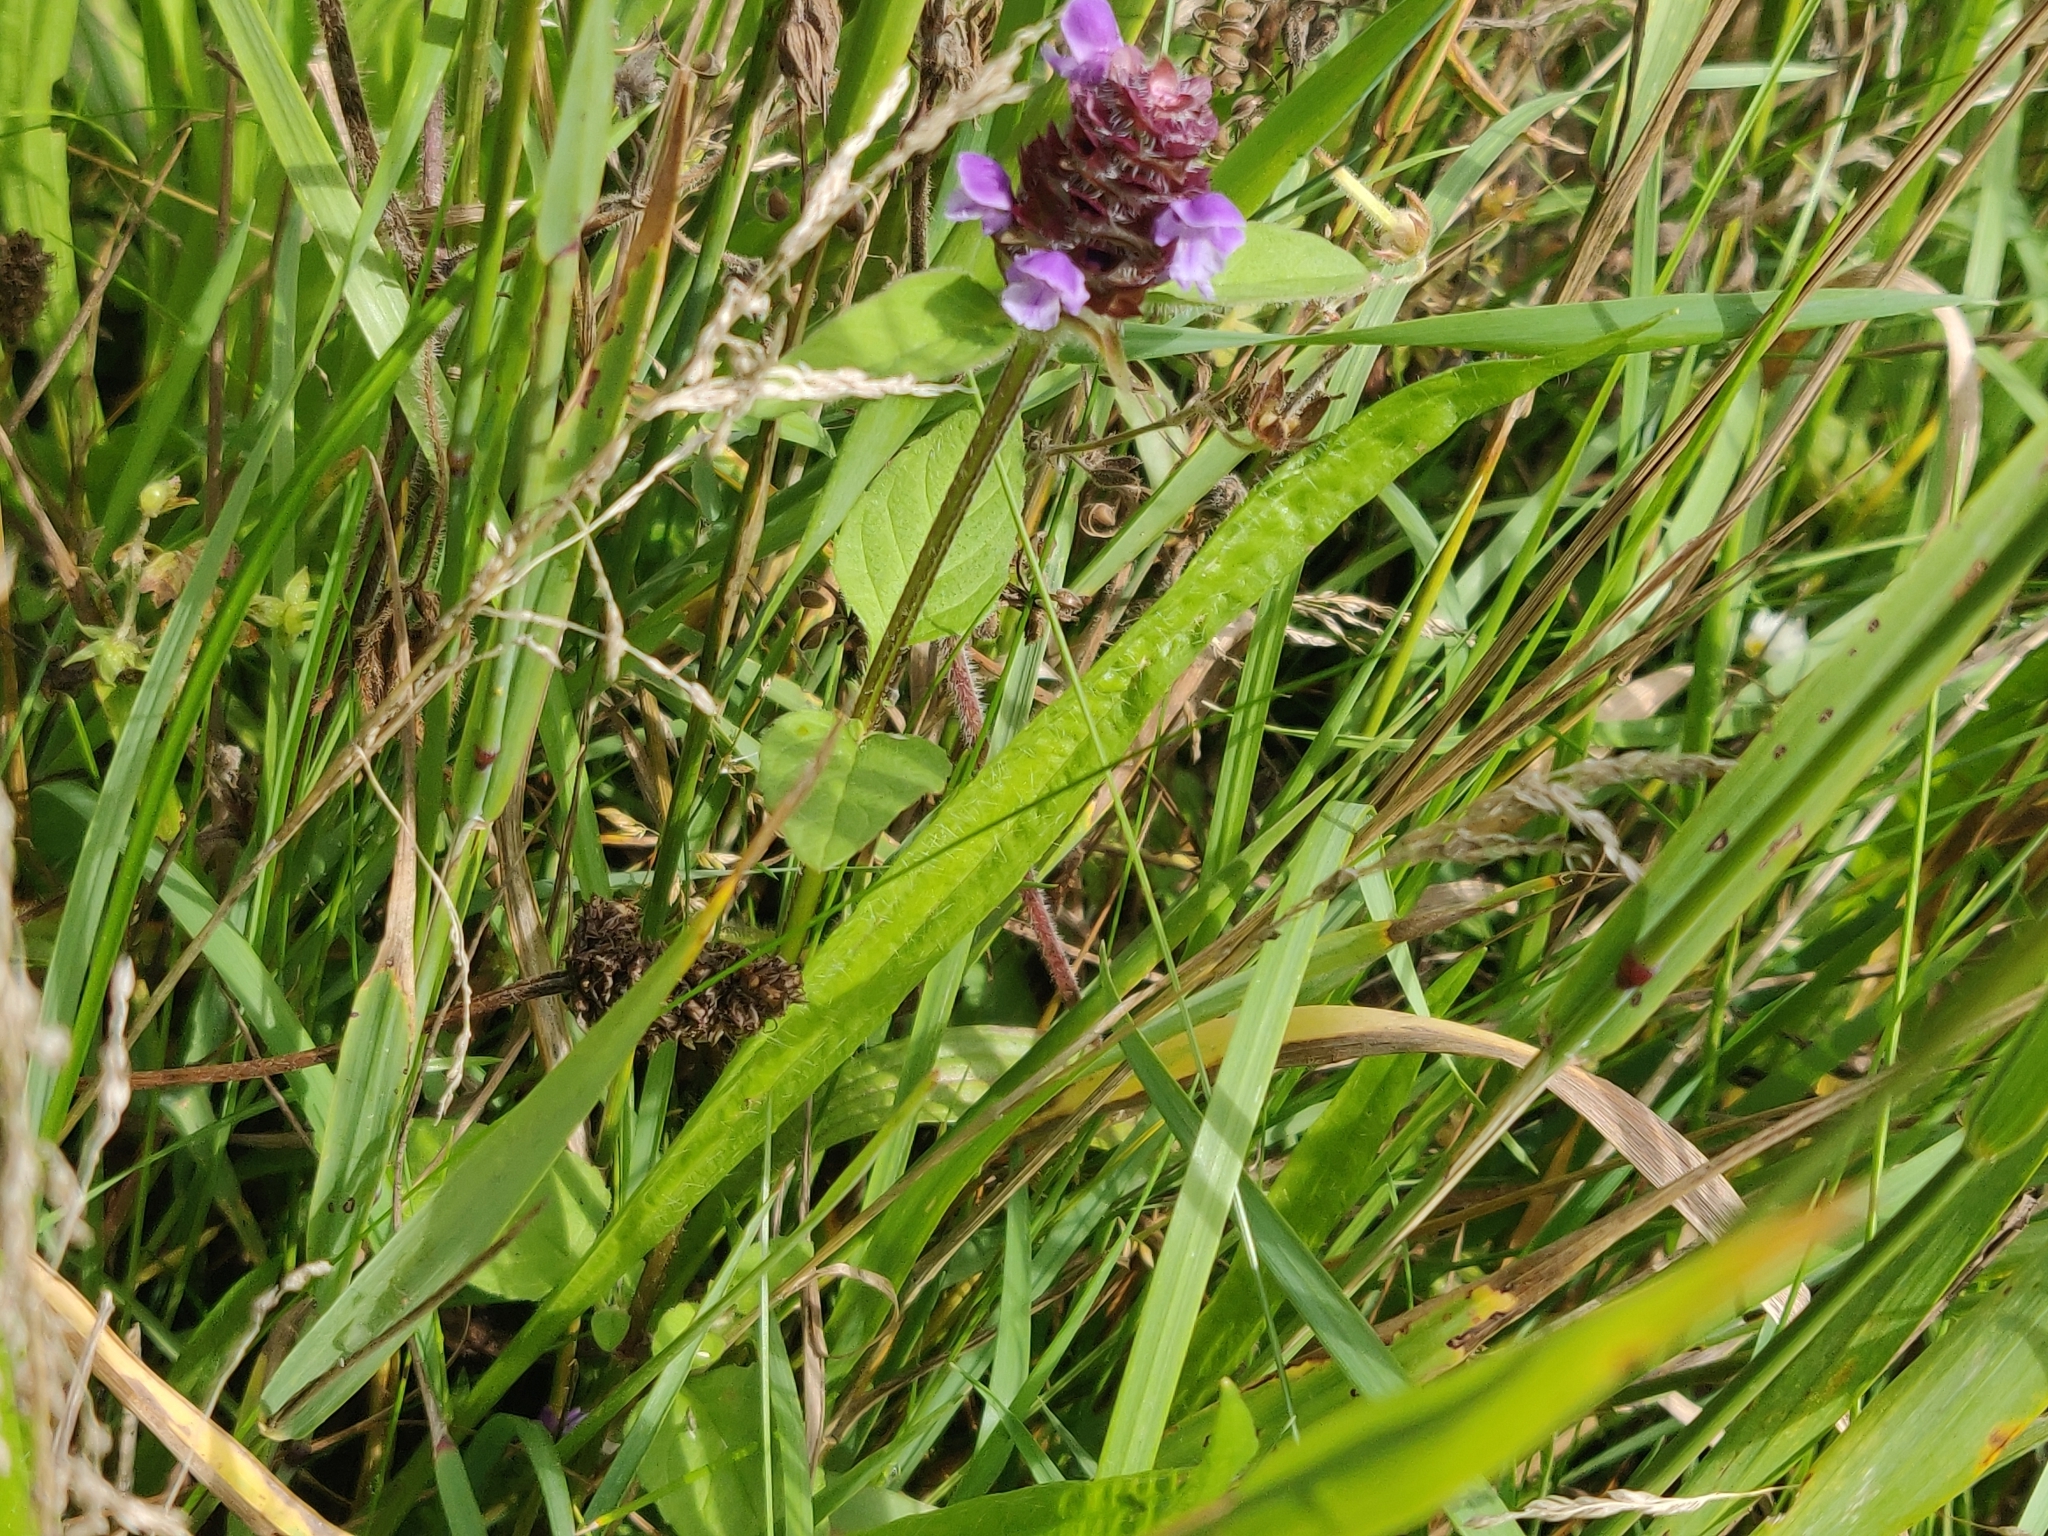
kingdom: Plantae
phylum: Tracheophyta
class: Magnoliopsida
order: Lamiales
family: Lamiaceae
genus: Prunella
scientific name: Prunella vulgaris
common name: Heal-all
